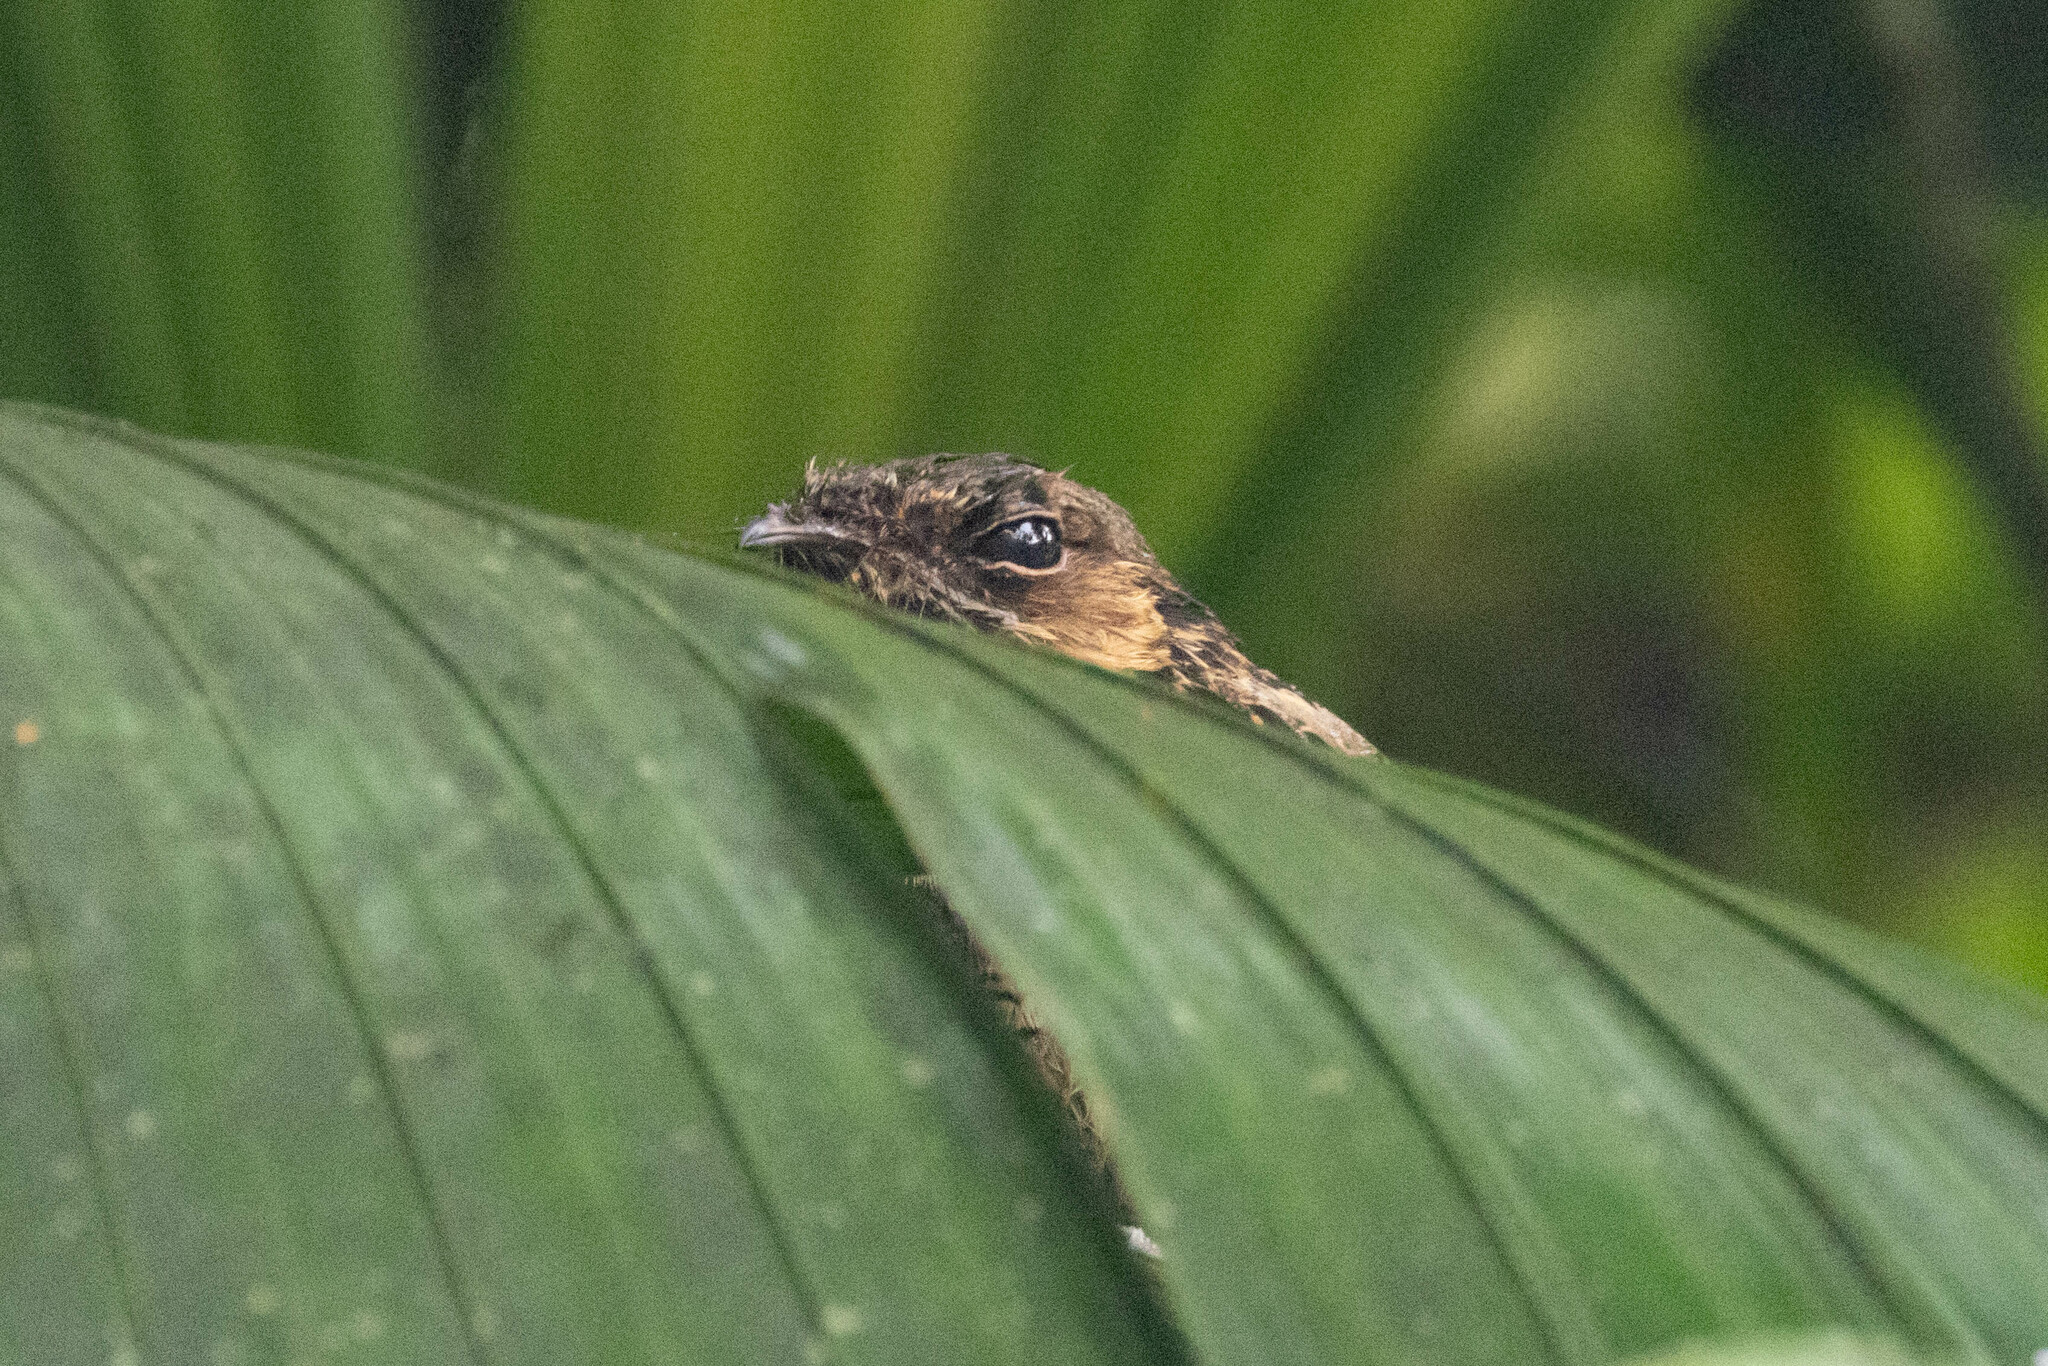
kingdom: Animalia
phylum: Chordata
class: Aves
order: Caprimulgiformes
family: Caprimulgidae
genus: Nyctidromus
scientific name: Nyctidromus albicollis
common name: Pauraque
